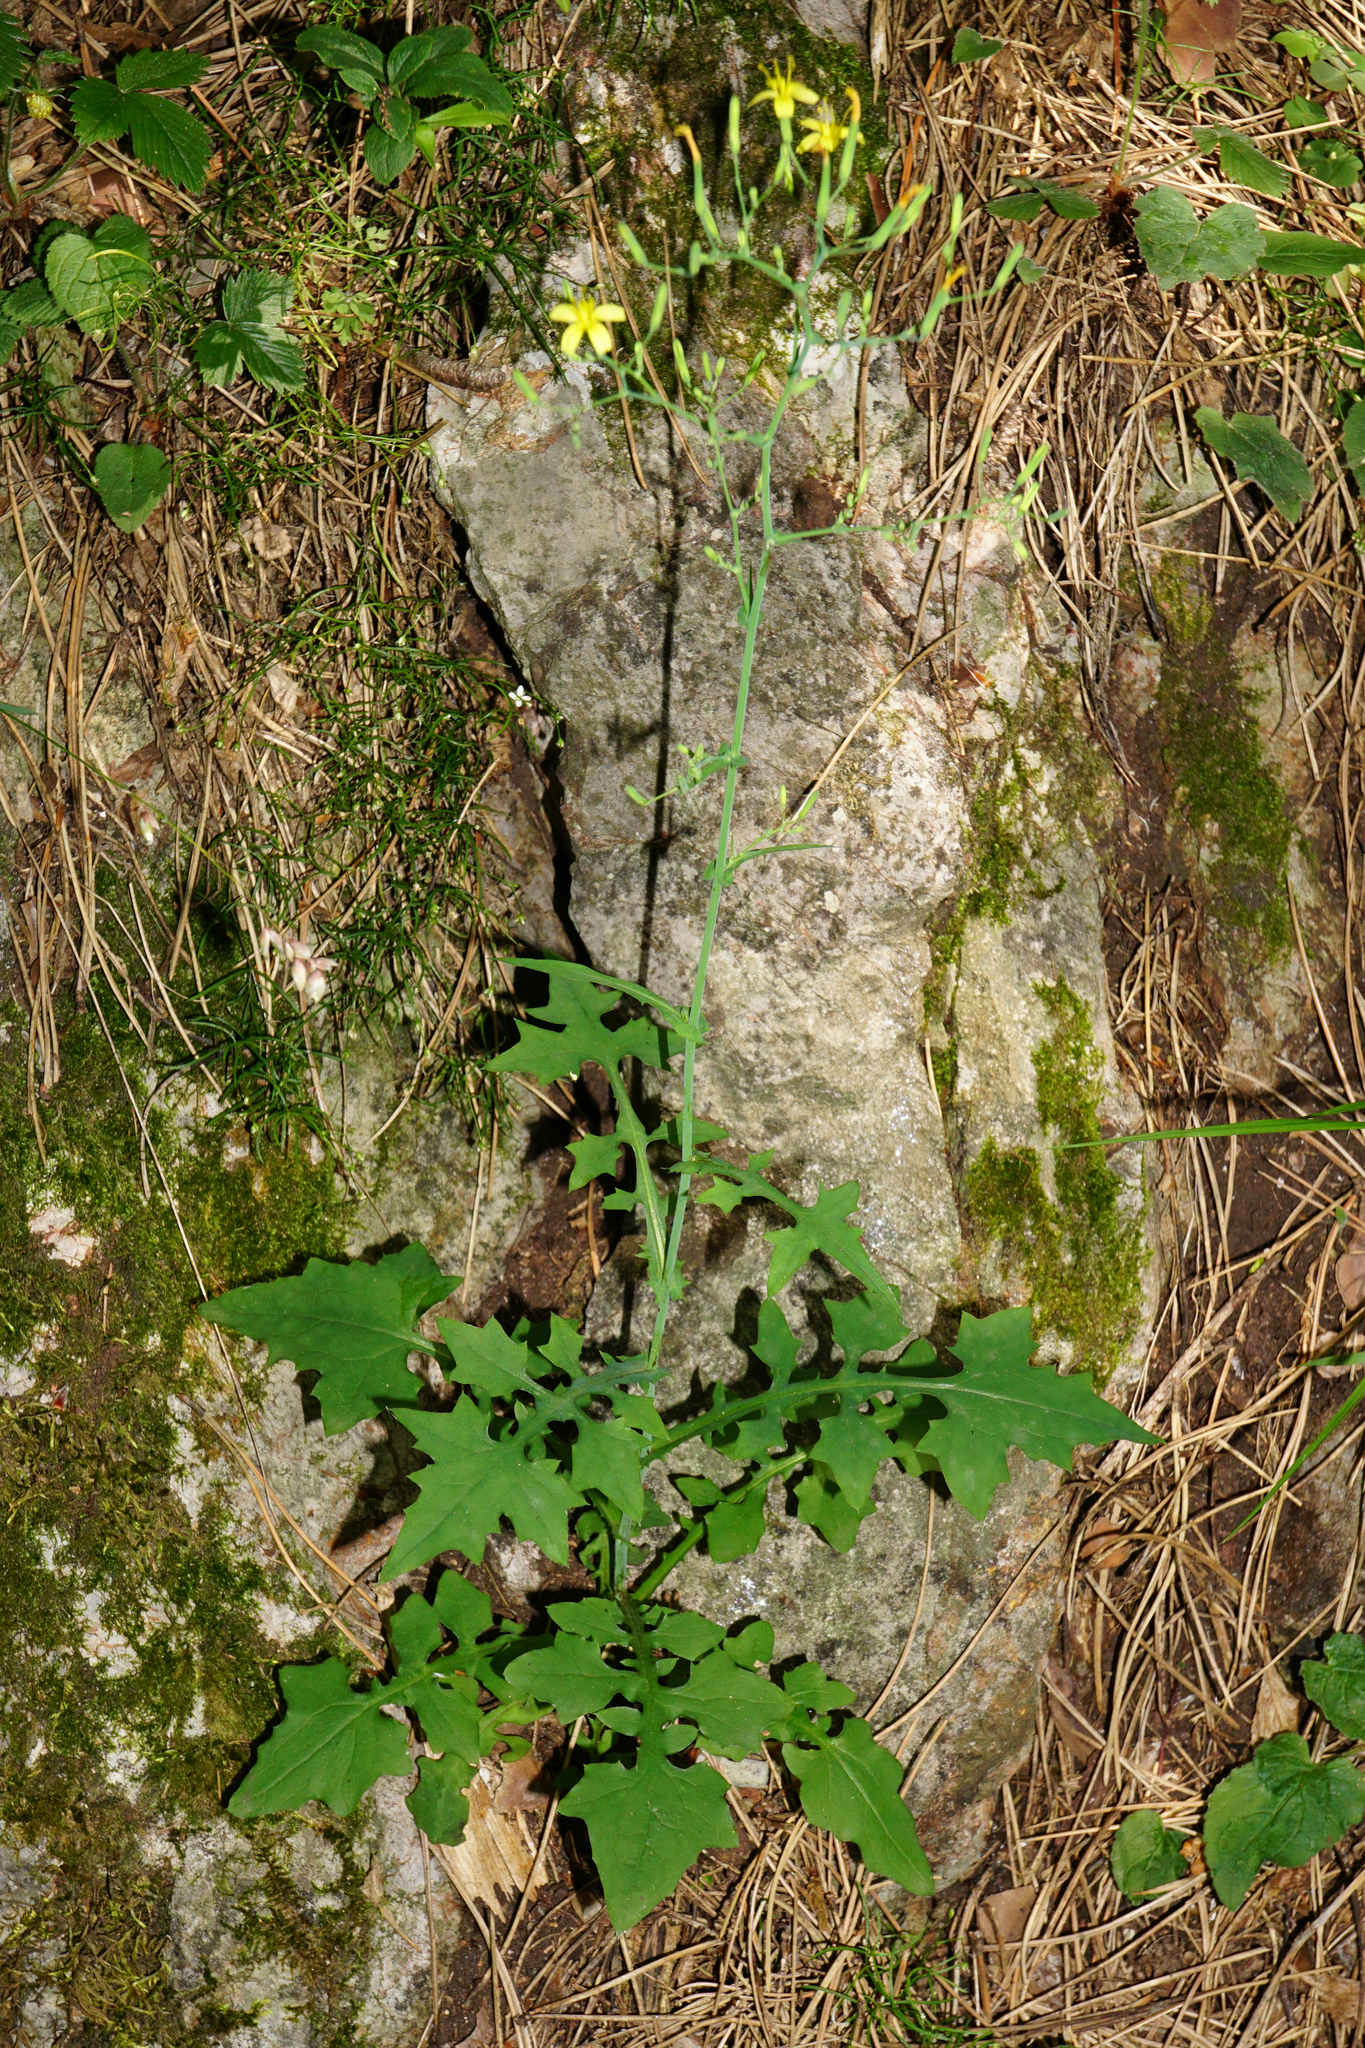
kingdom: Plantae
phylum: Tracheophyta
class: Magnoliopsida
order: Asterales
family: Asteraceae
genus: Mycelis
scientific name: Mycelis muralis
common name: Wall lettuce
